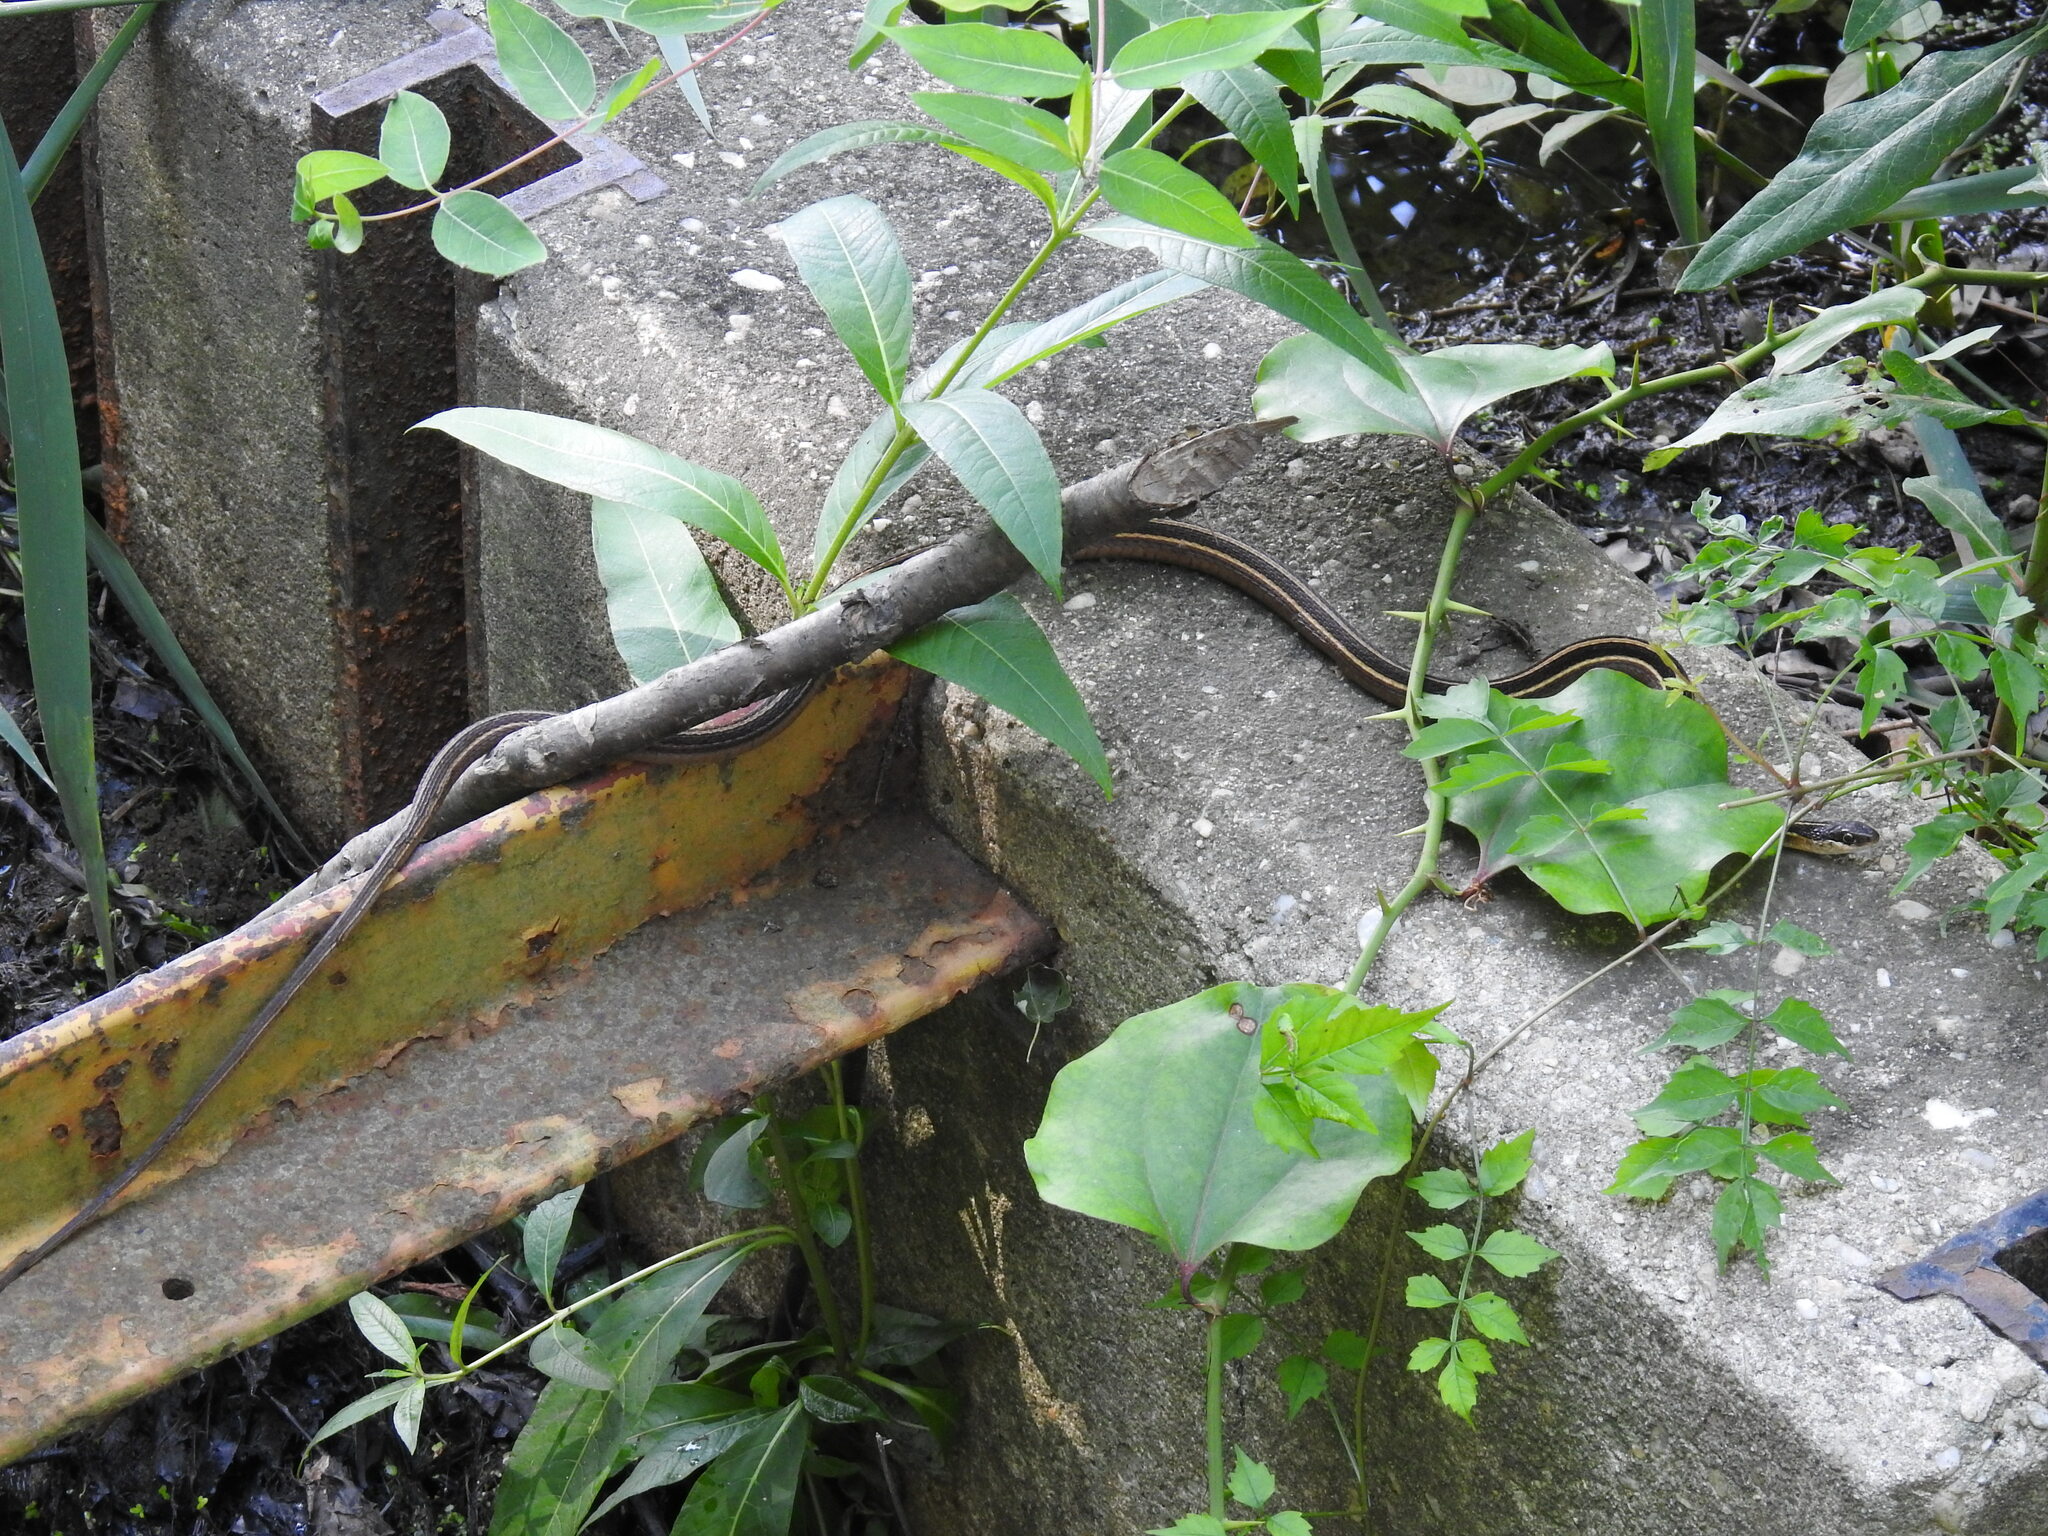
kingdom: Animalia
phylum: Chordata
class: Squamata
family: Colubridae
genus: Thamnophis
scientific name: Thamnophis saurita
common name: Eastern ribbonsnake
